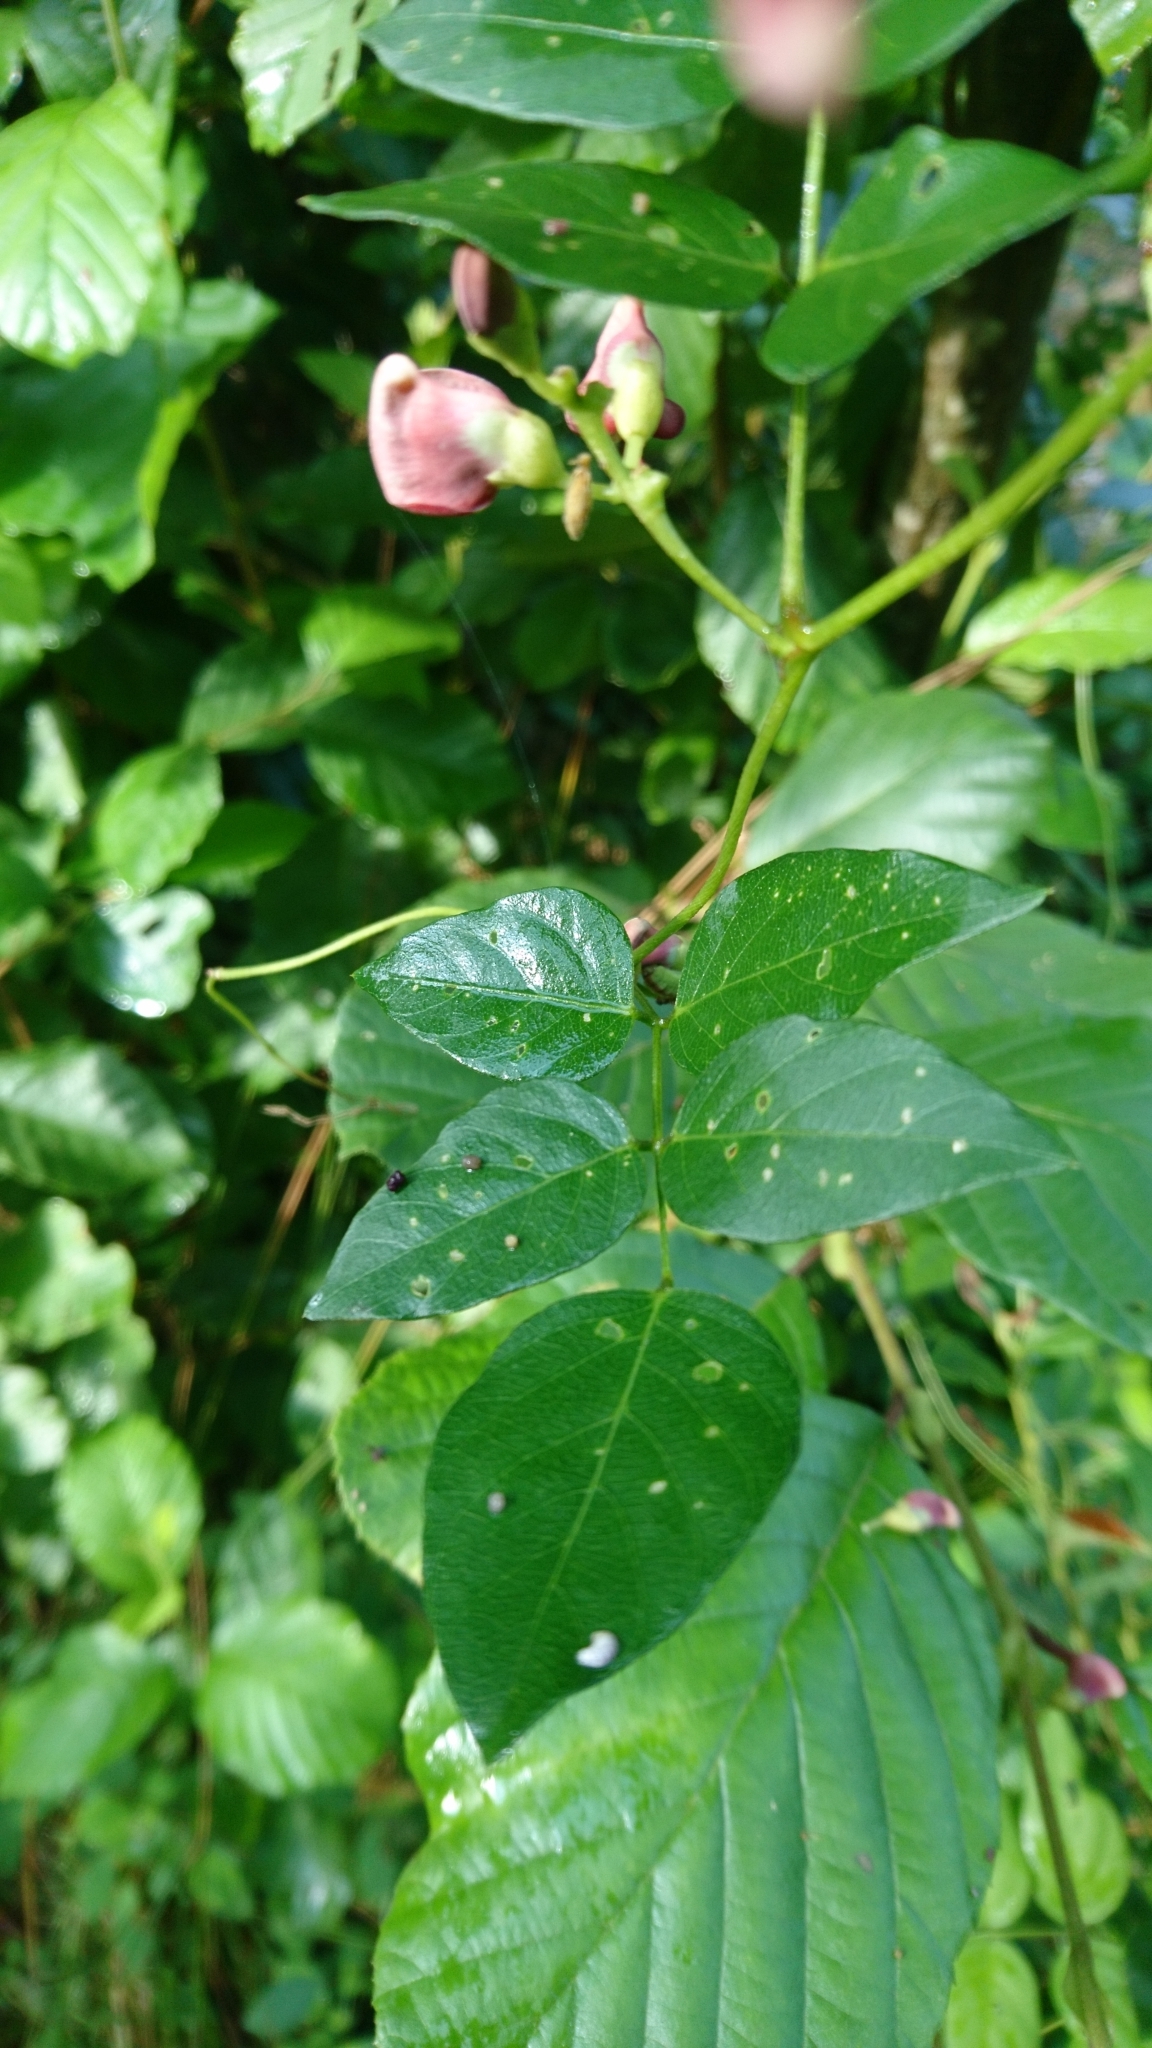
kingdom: Plantae
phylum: Tracheophyta
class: Magnoliopsida
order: Fabales
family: Fabaceae
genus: Apios
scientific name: Apios americana
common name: American potato-bean
